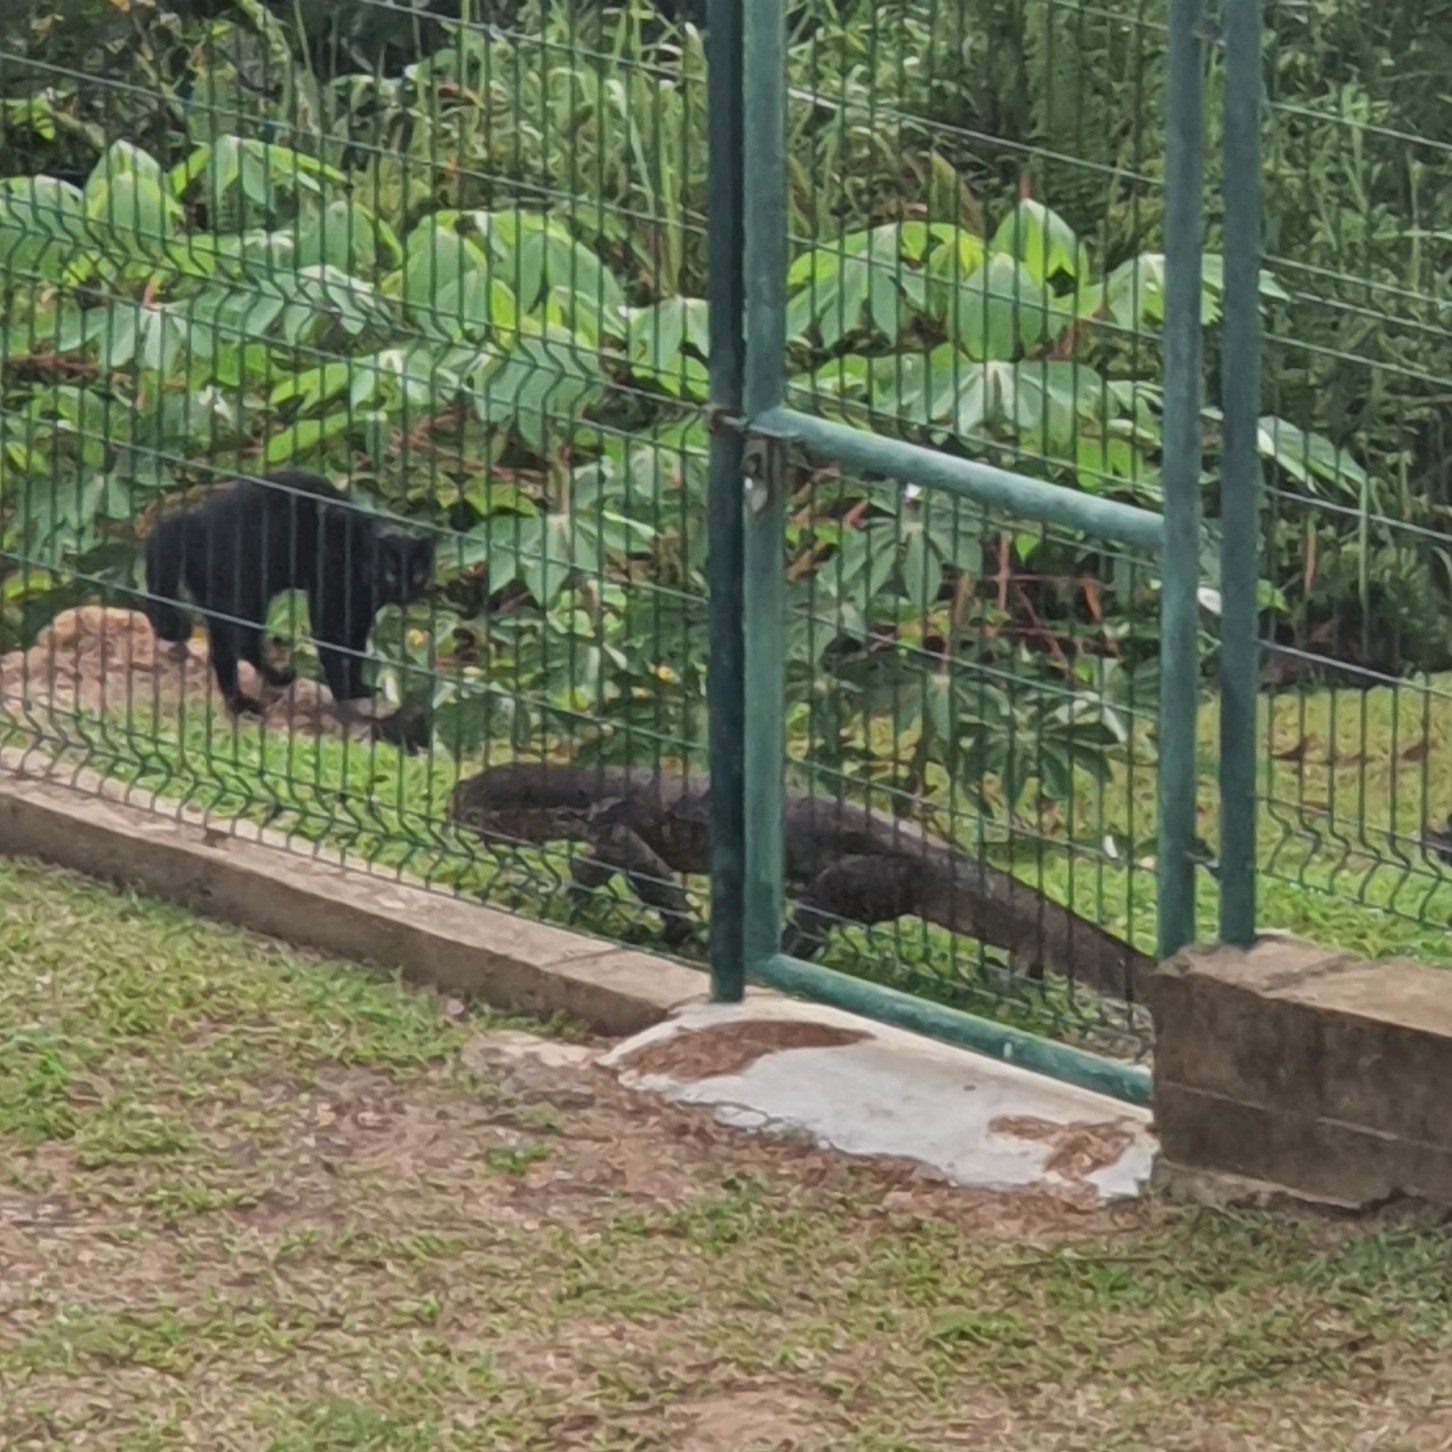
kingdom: Animalia
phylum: Chordata
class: Squamata
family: Varanidae
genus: Varanus
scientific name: Varanus salvator
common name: Common water monitor
